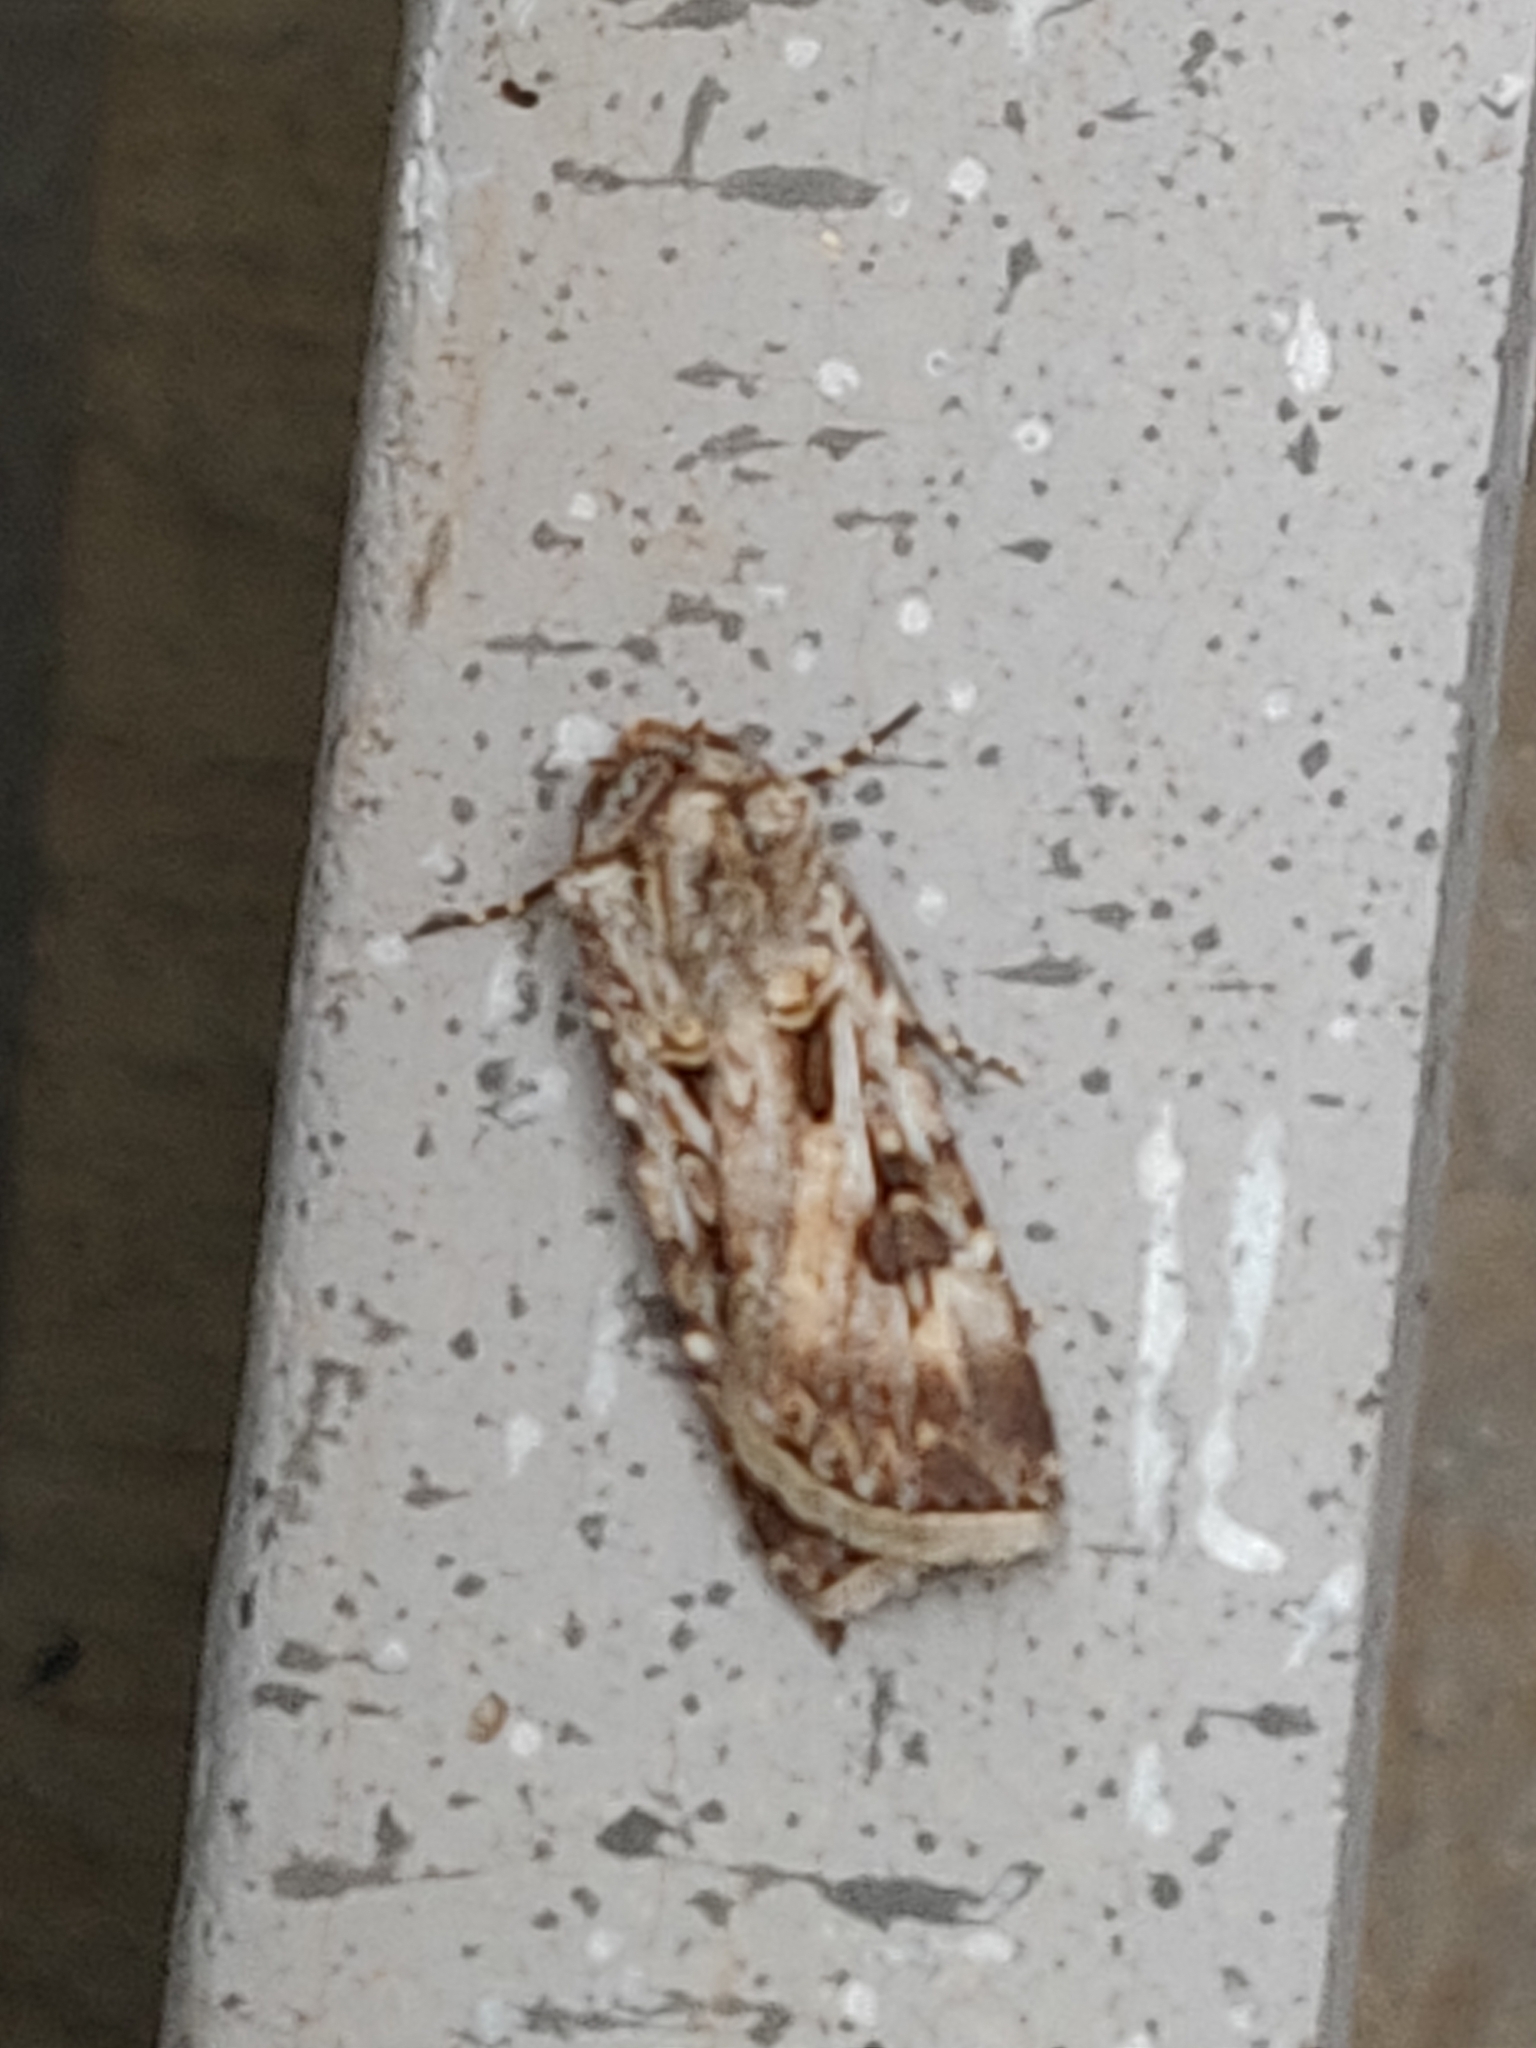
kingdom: Animalia
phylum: Arthropoda
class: Insecta
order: Lepidoptera
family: Noctuidae
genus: Agrotis
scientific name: Agrotis munda
